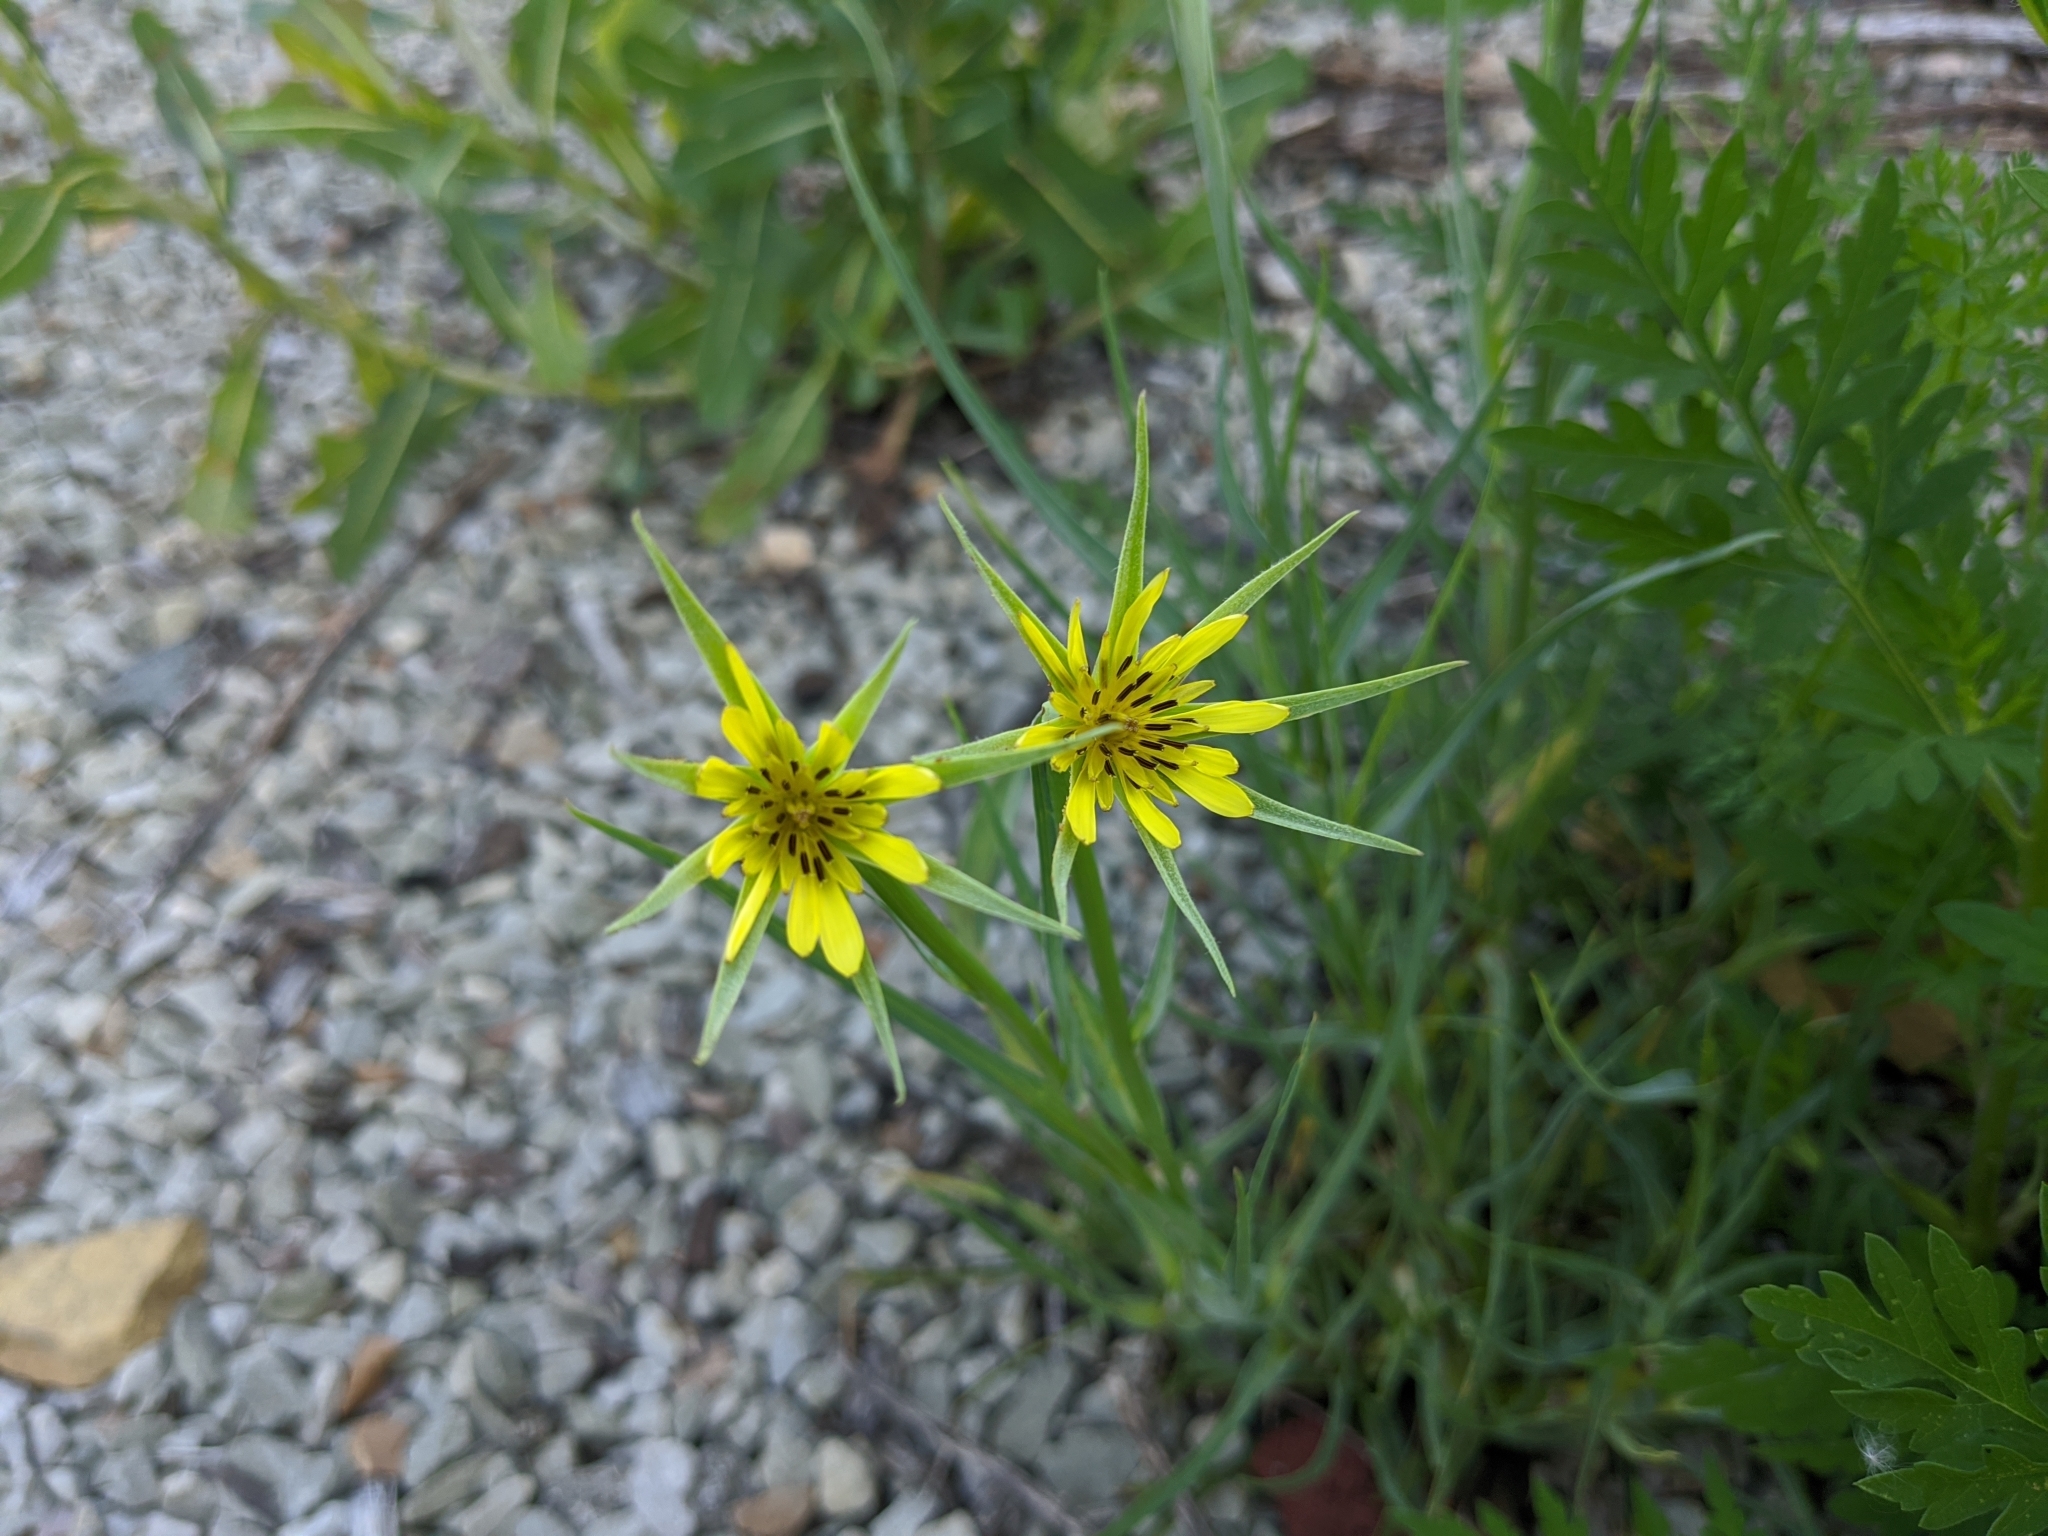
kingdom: Plantae
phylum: Tracheophyta
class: Magnoliopsida
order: Asterales
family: Asteraceae
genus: Tragopogon
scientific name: Tragopogon dubius
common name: Yellow salsify
